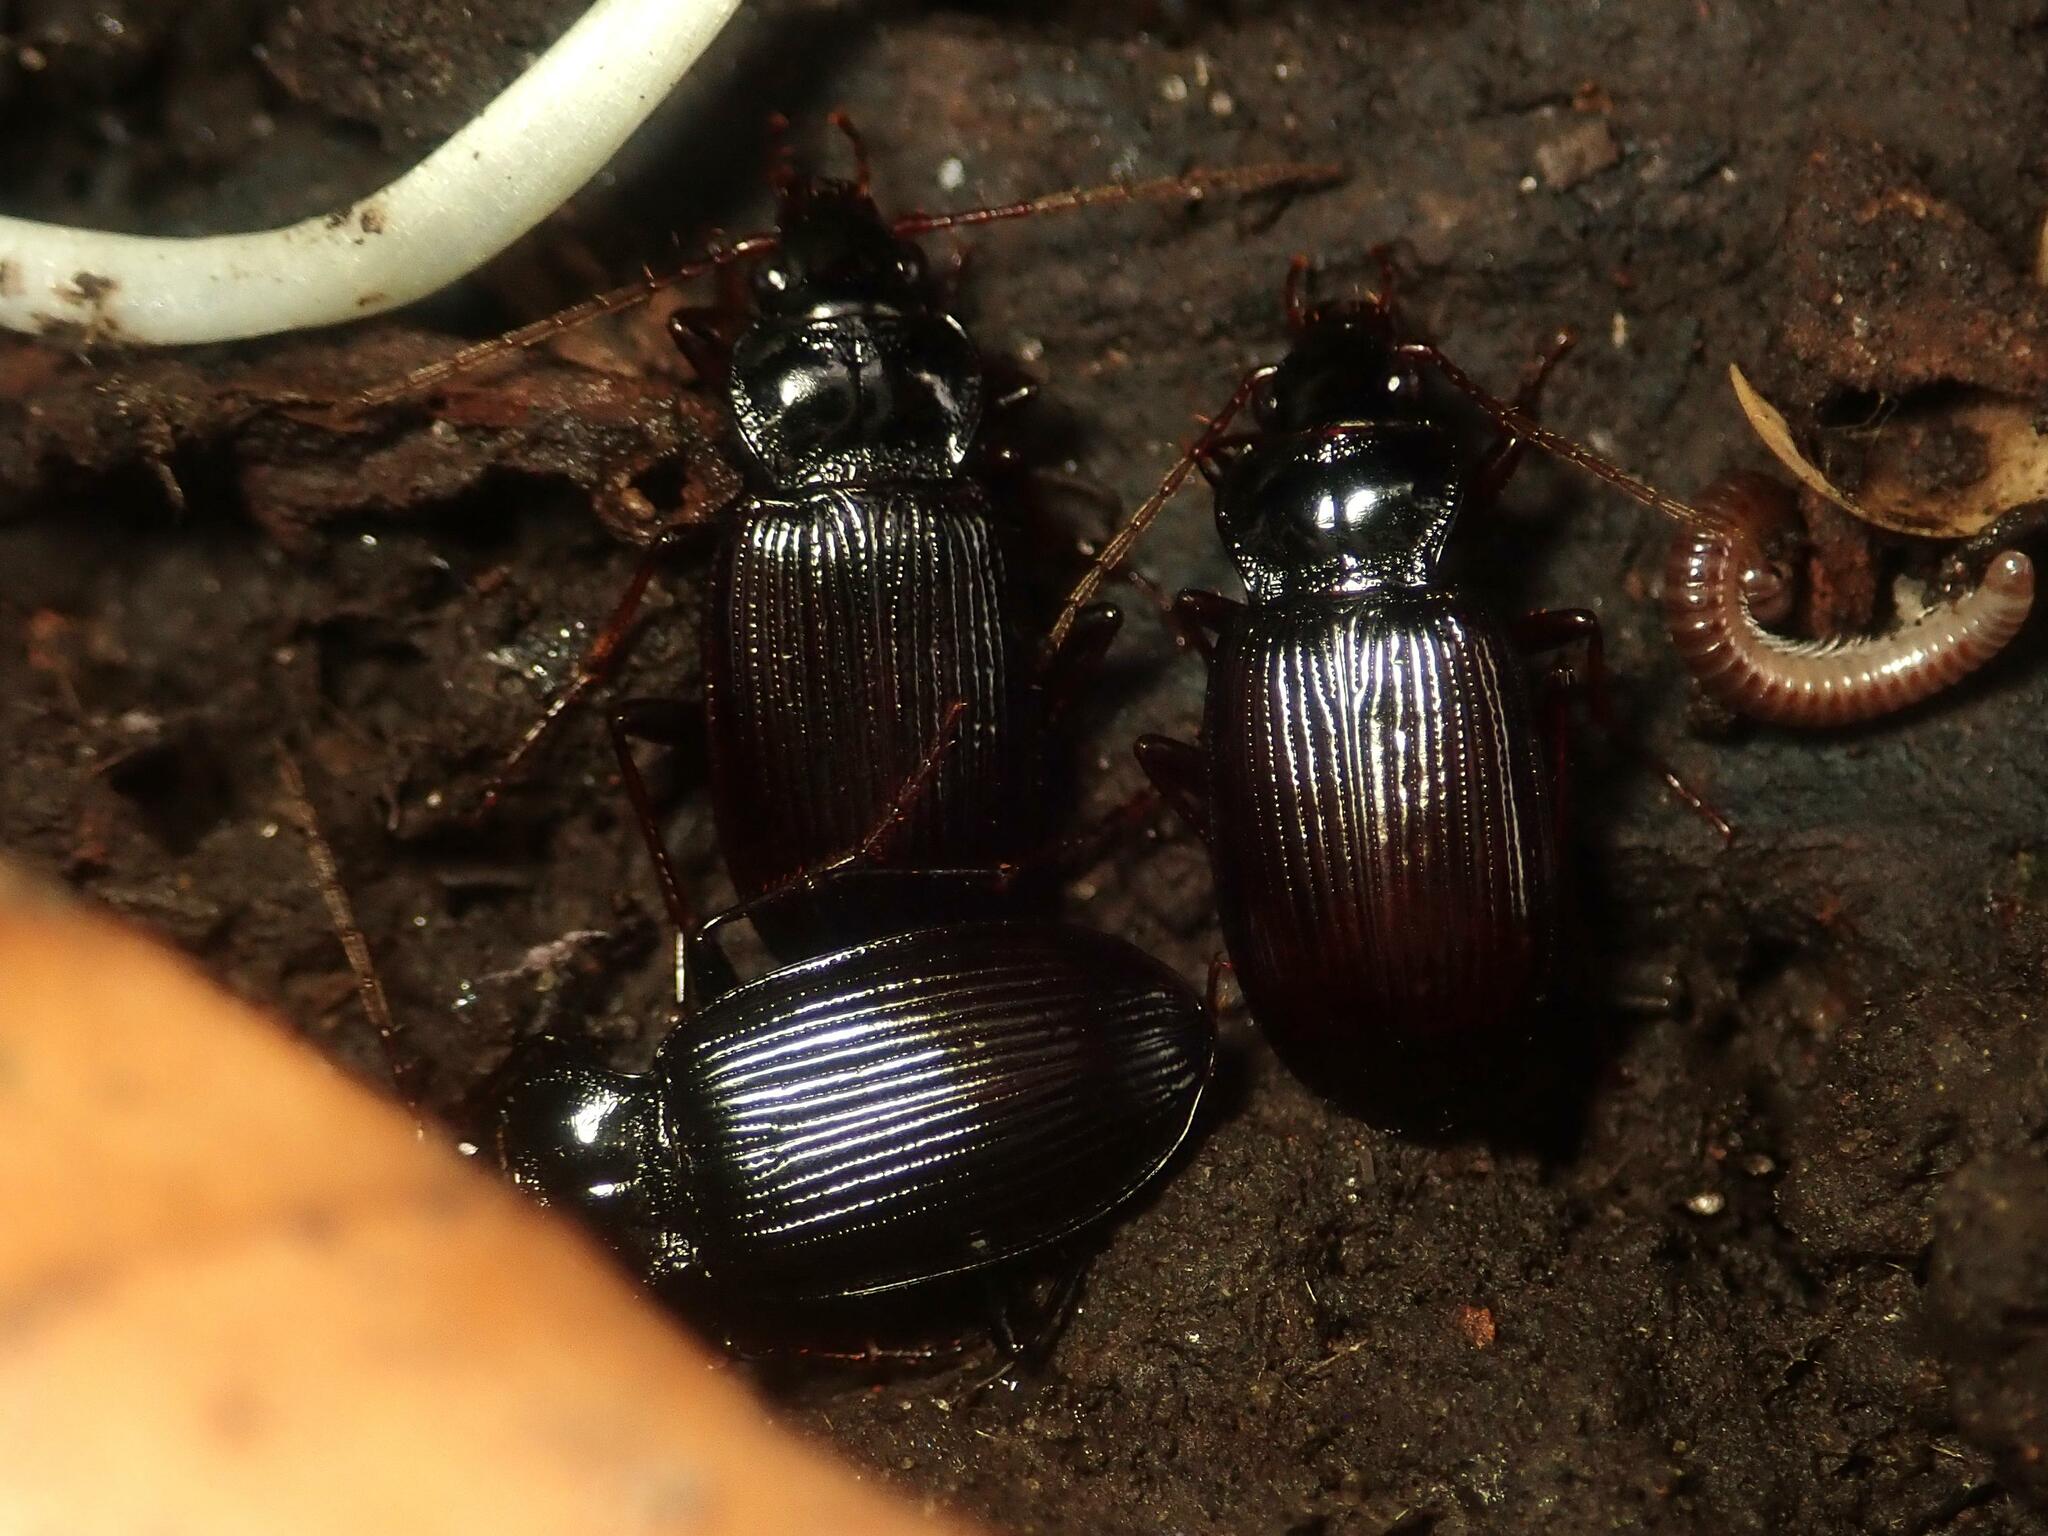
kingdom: Animalia
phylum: Arthropoda
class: Insecta
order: Coleoptera
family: Carabidae
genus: Nebria
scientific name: Nebria brevicollis
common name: Short-necked gazelle beetle
